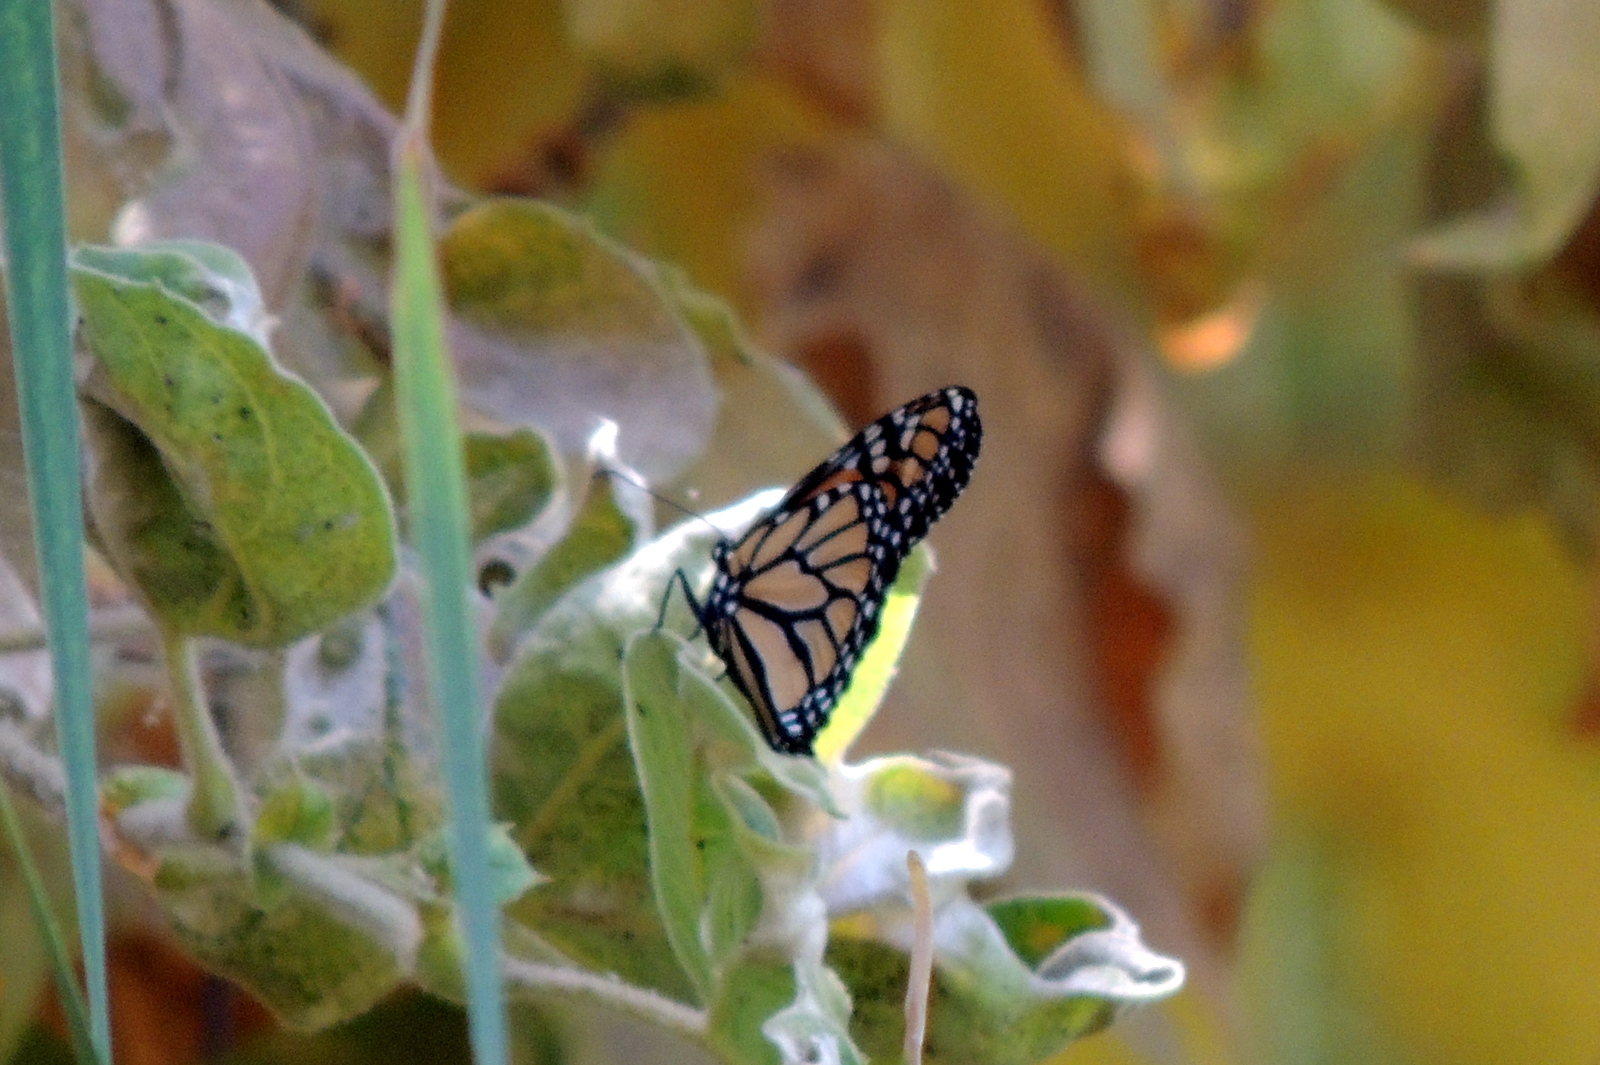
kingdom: Animalia
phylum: Arthropoda
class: Insecta
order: Lepidoptera
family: Nymphalidae
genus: Danaus
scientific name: Danaus plexippus
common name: Monarch
